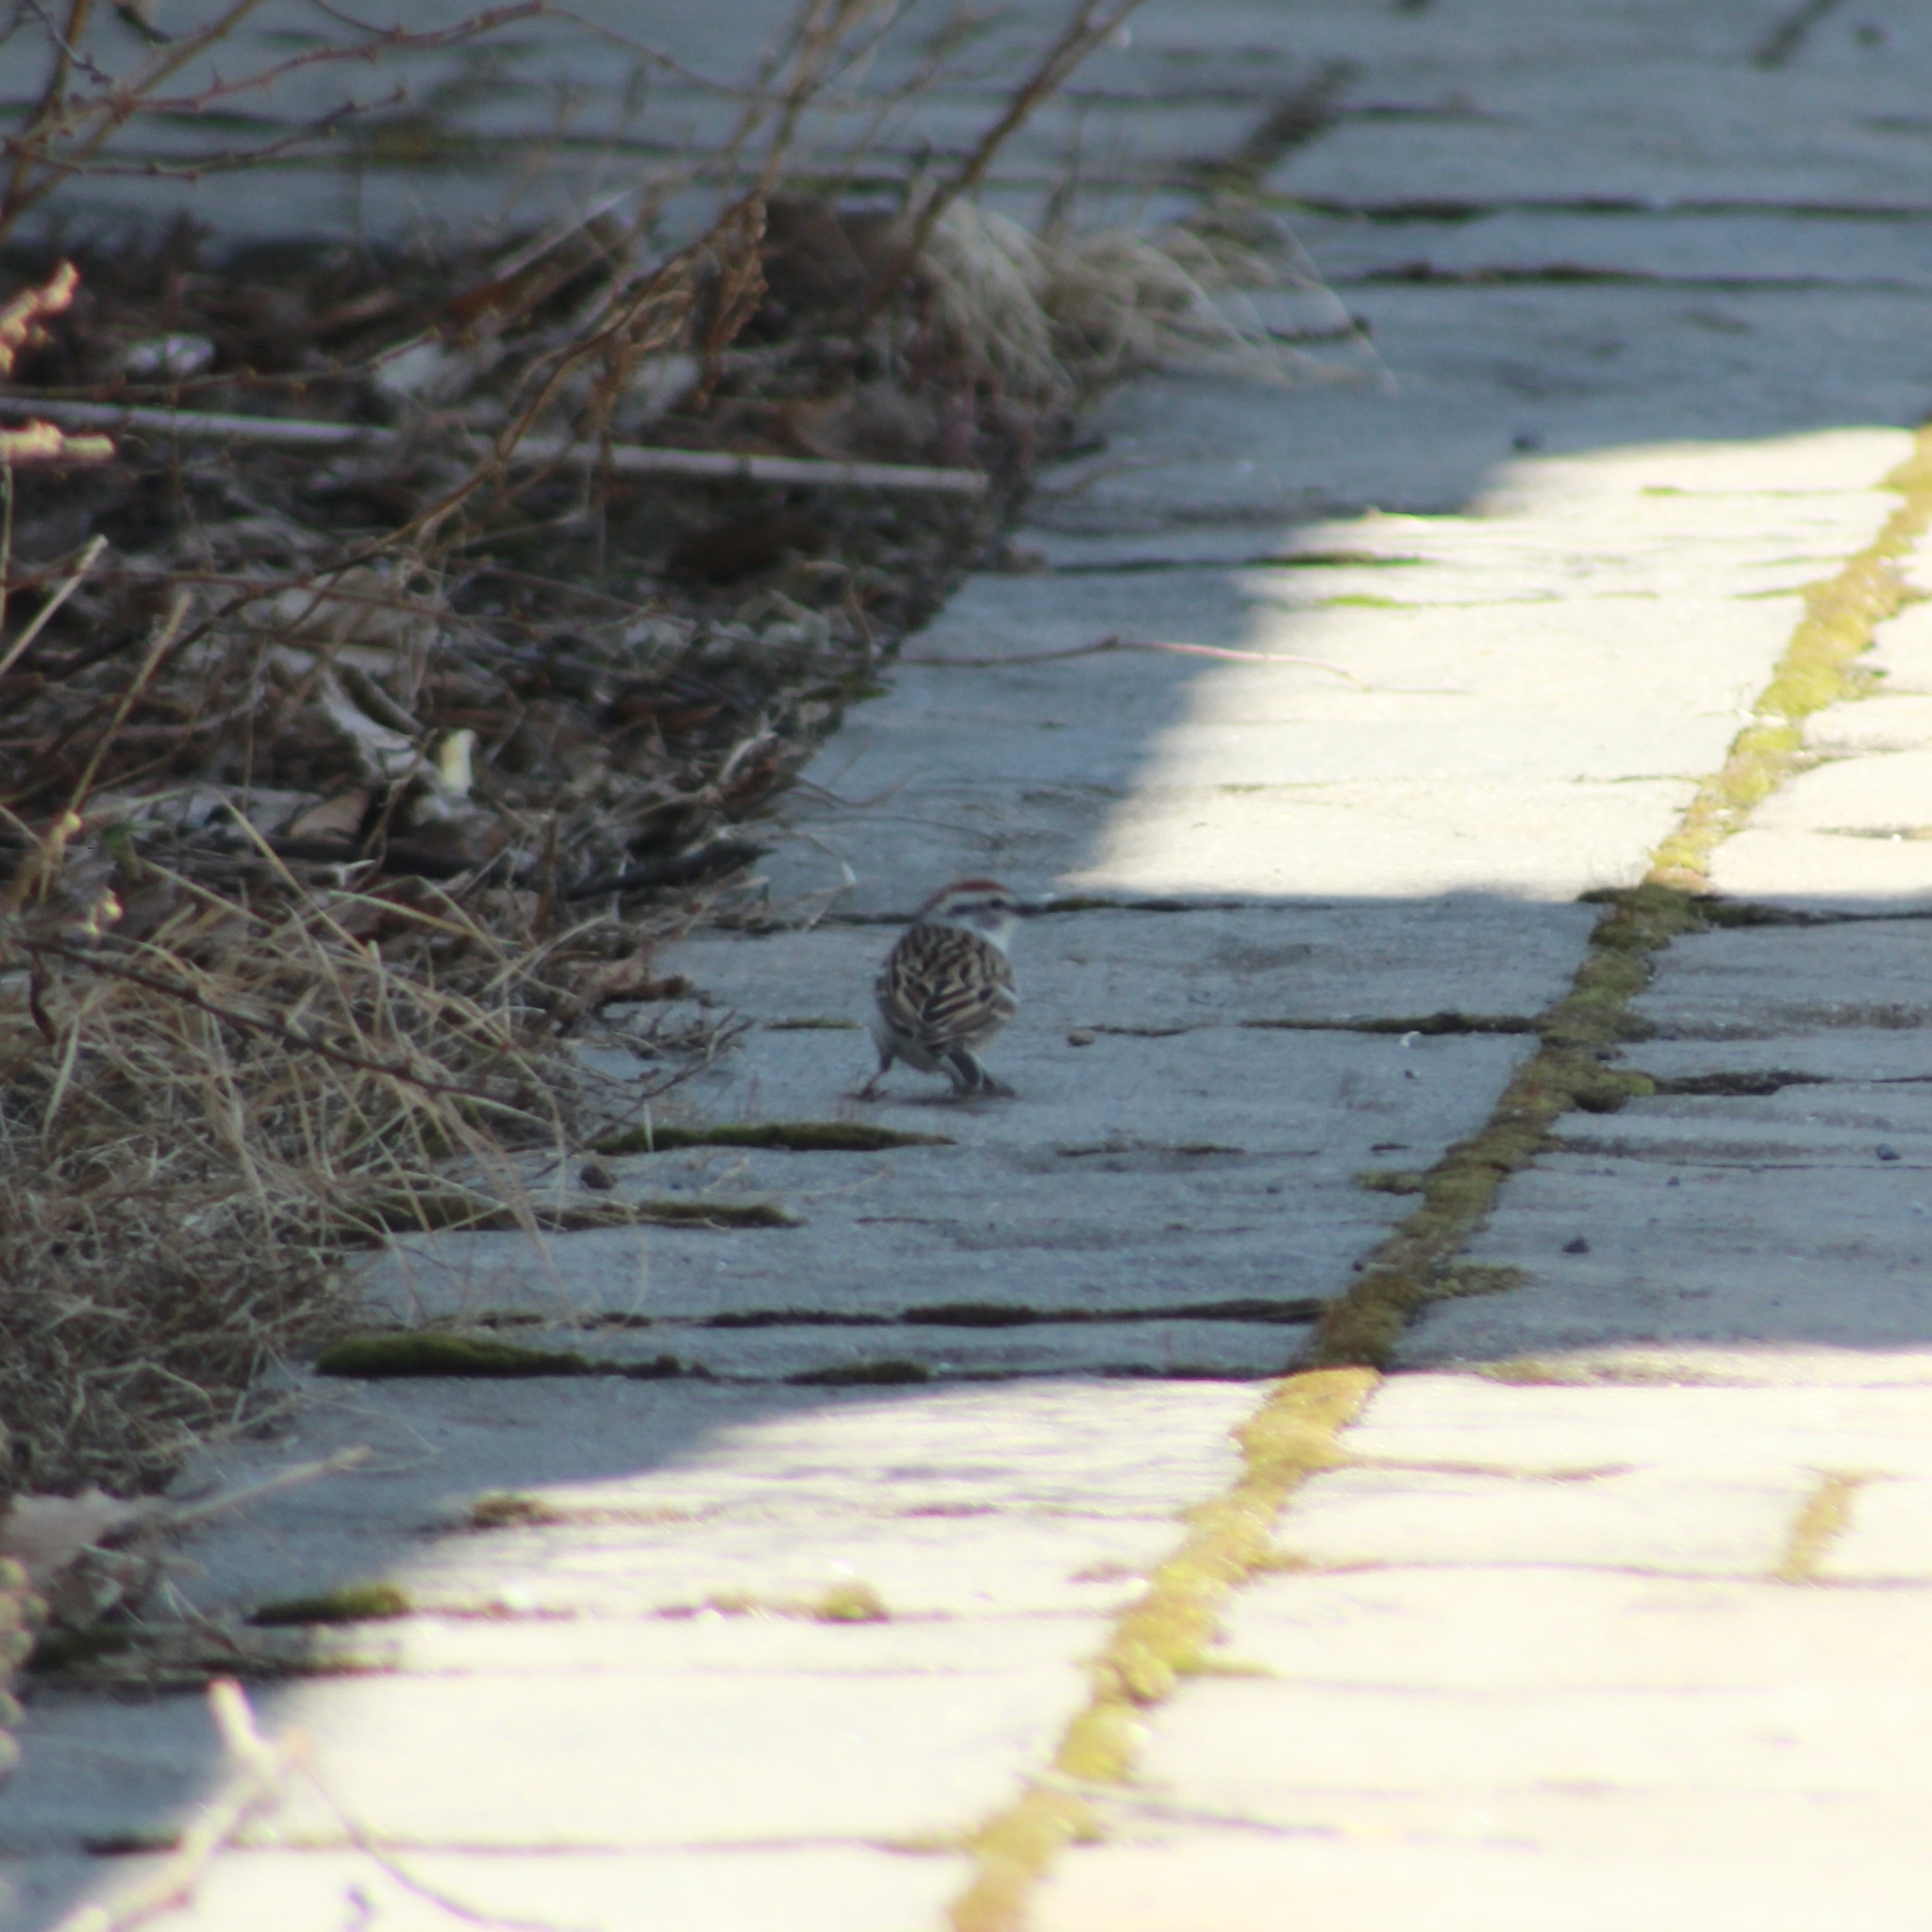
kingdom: Animalia
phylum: Chordata
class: Aves
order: Passeriformes
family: Passerellidae
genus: Spizella
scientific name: Spizella passerina
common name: Chipping sparrow
